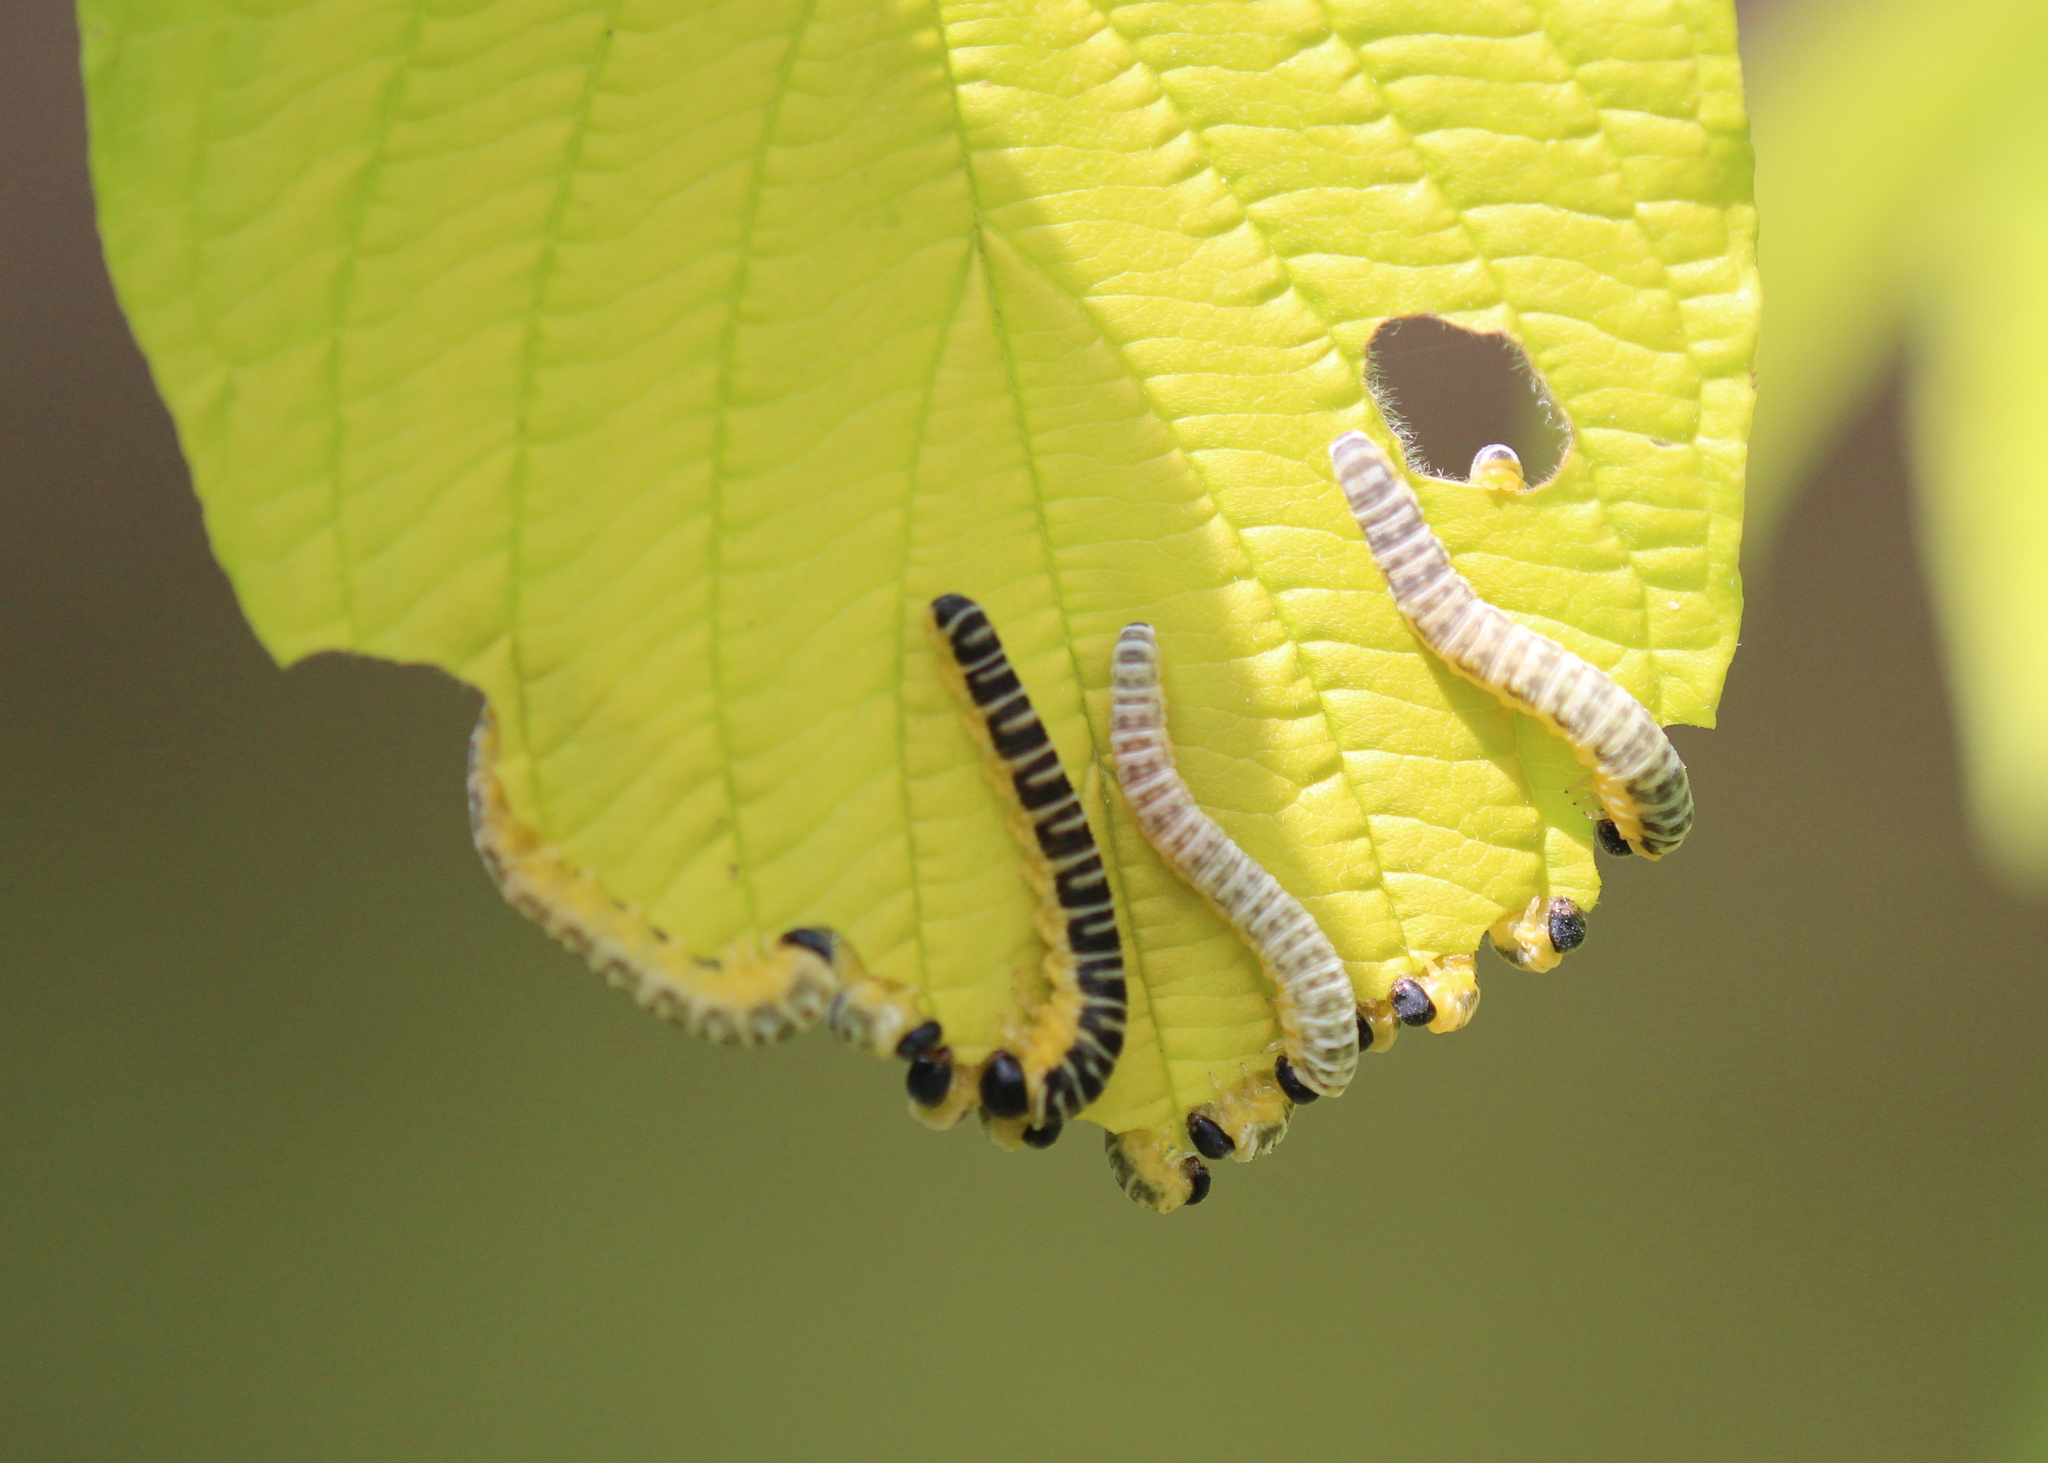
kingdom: Animalia
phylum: Arthropoda
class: Insecta
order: Hymenoptera
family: Tenthredinidae
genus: Macremphytus
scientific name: Macremphytus
